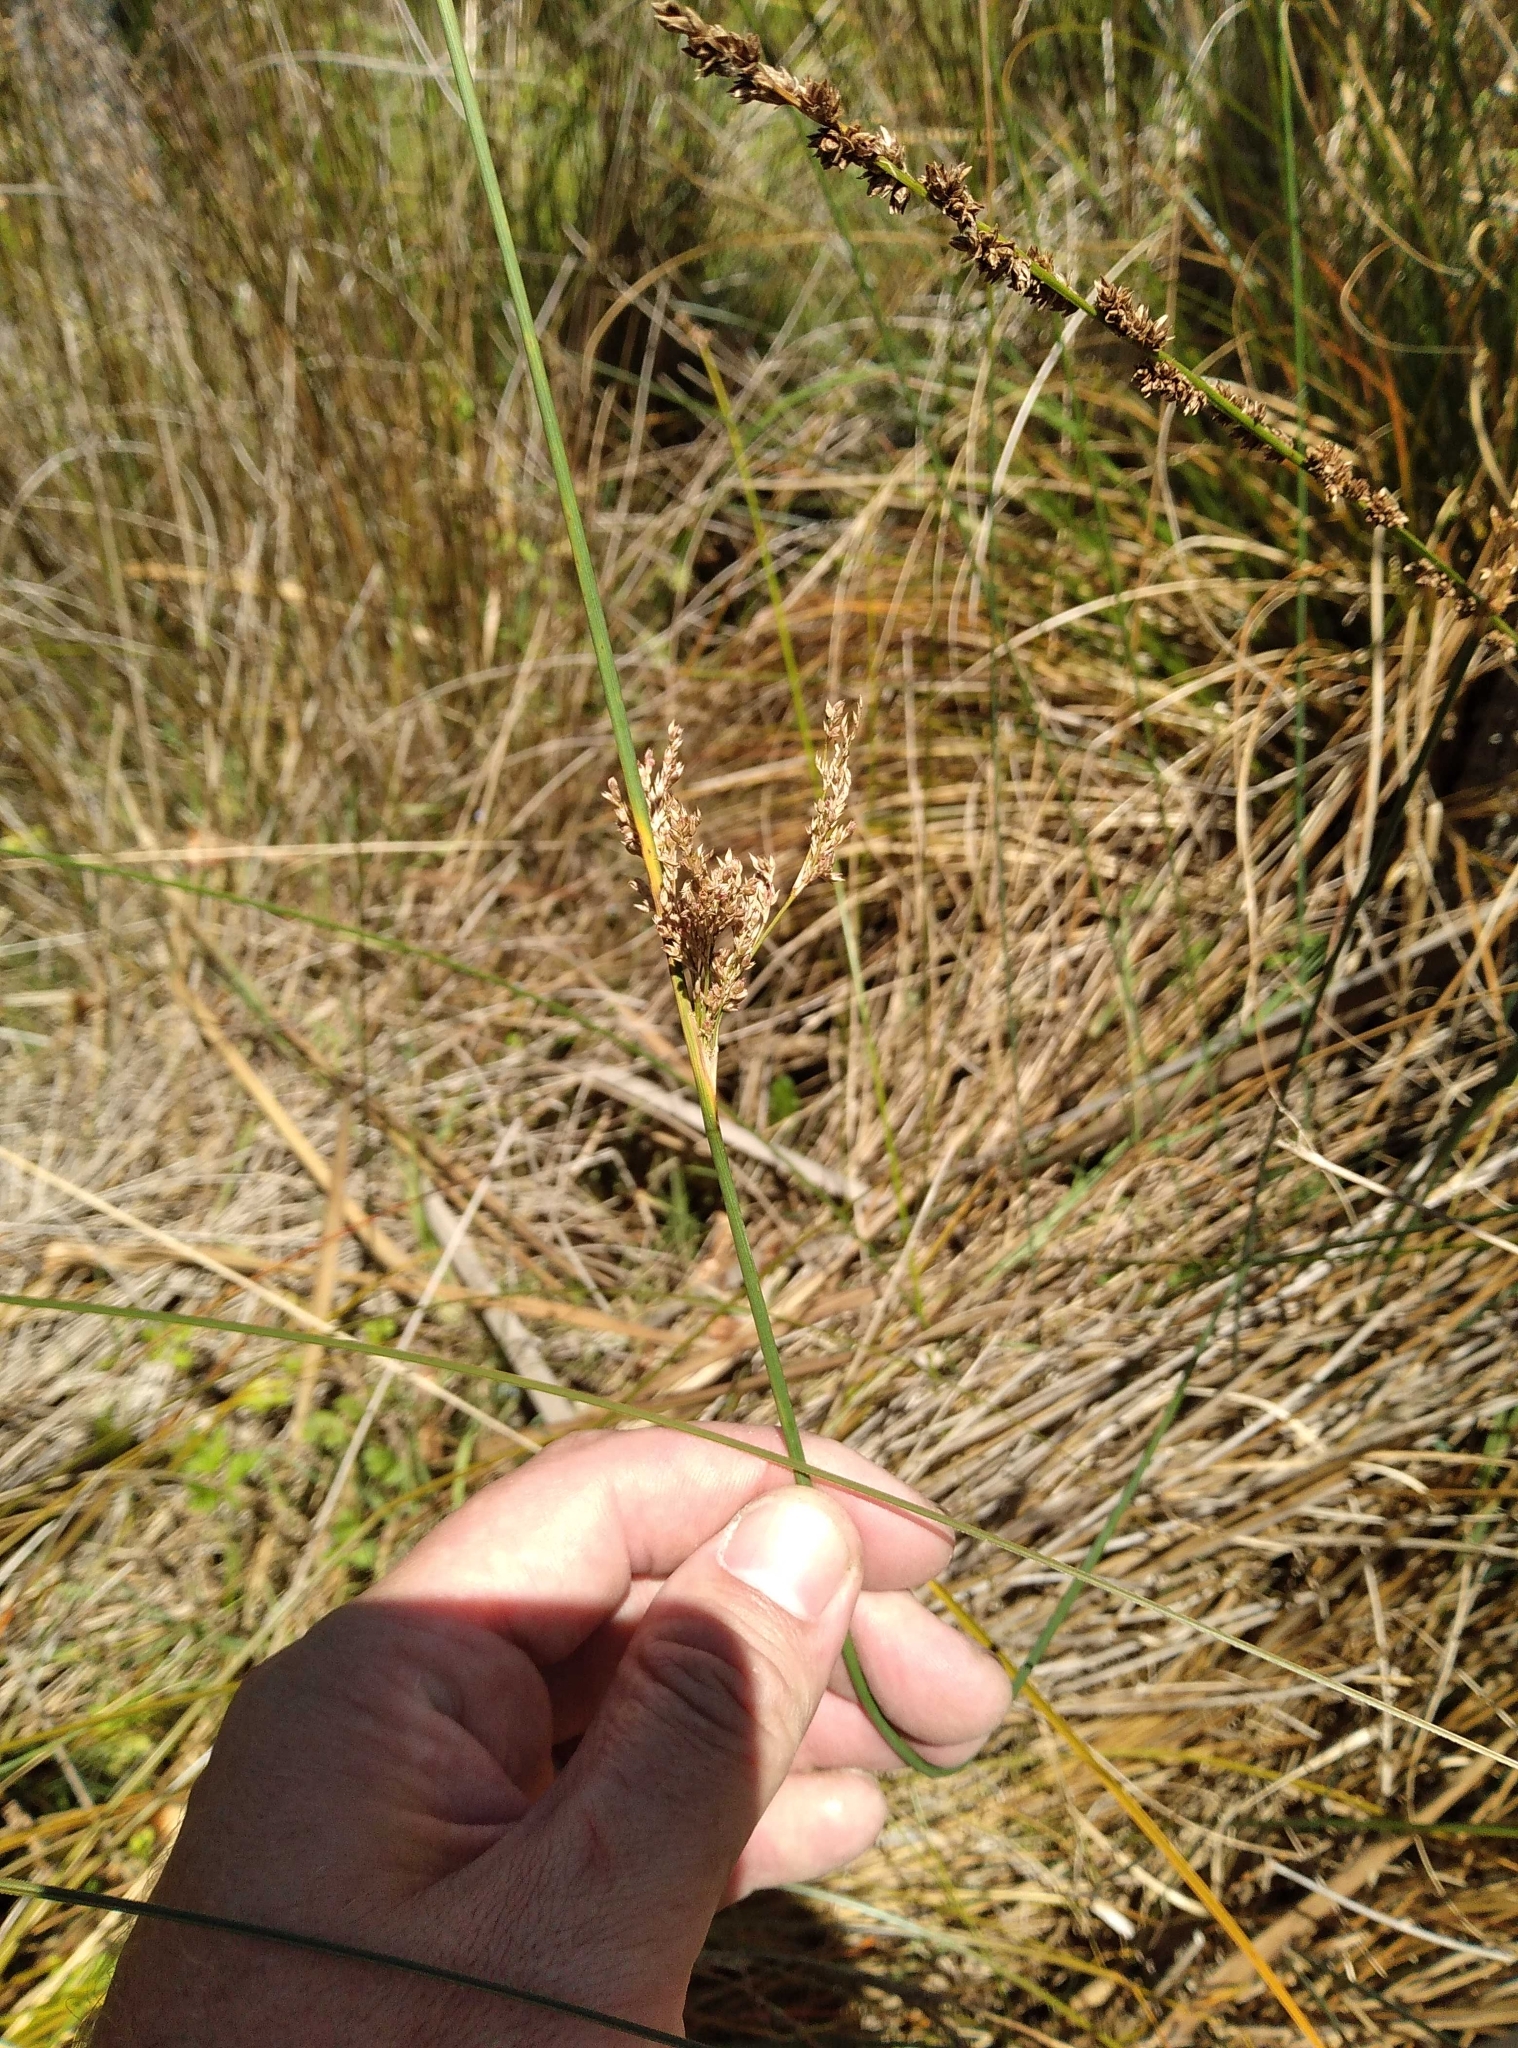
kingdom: Plantae
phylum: Tracheophyta
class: Liliopsida
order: Poales
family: Juncaceae
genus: Juncus
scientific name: Juncus sarophorus
